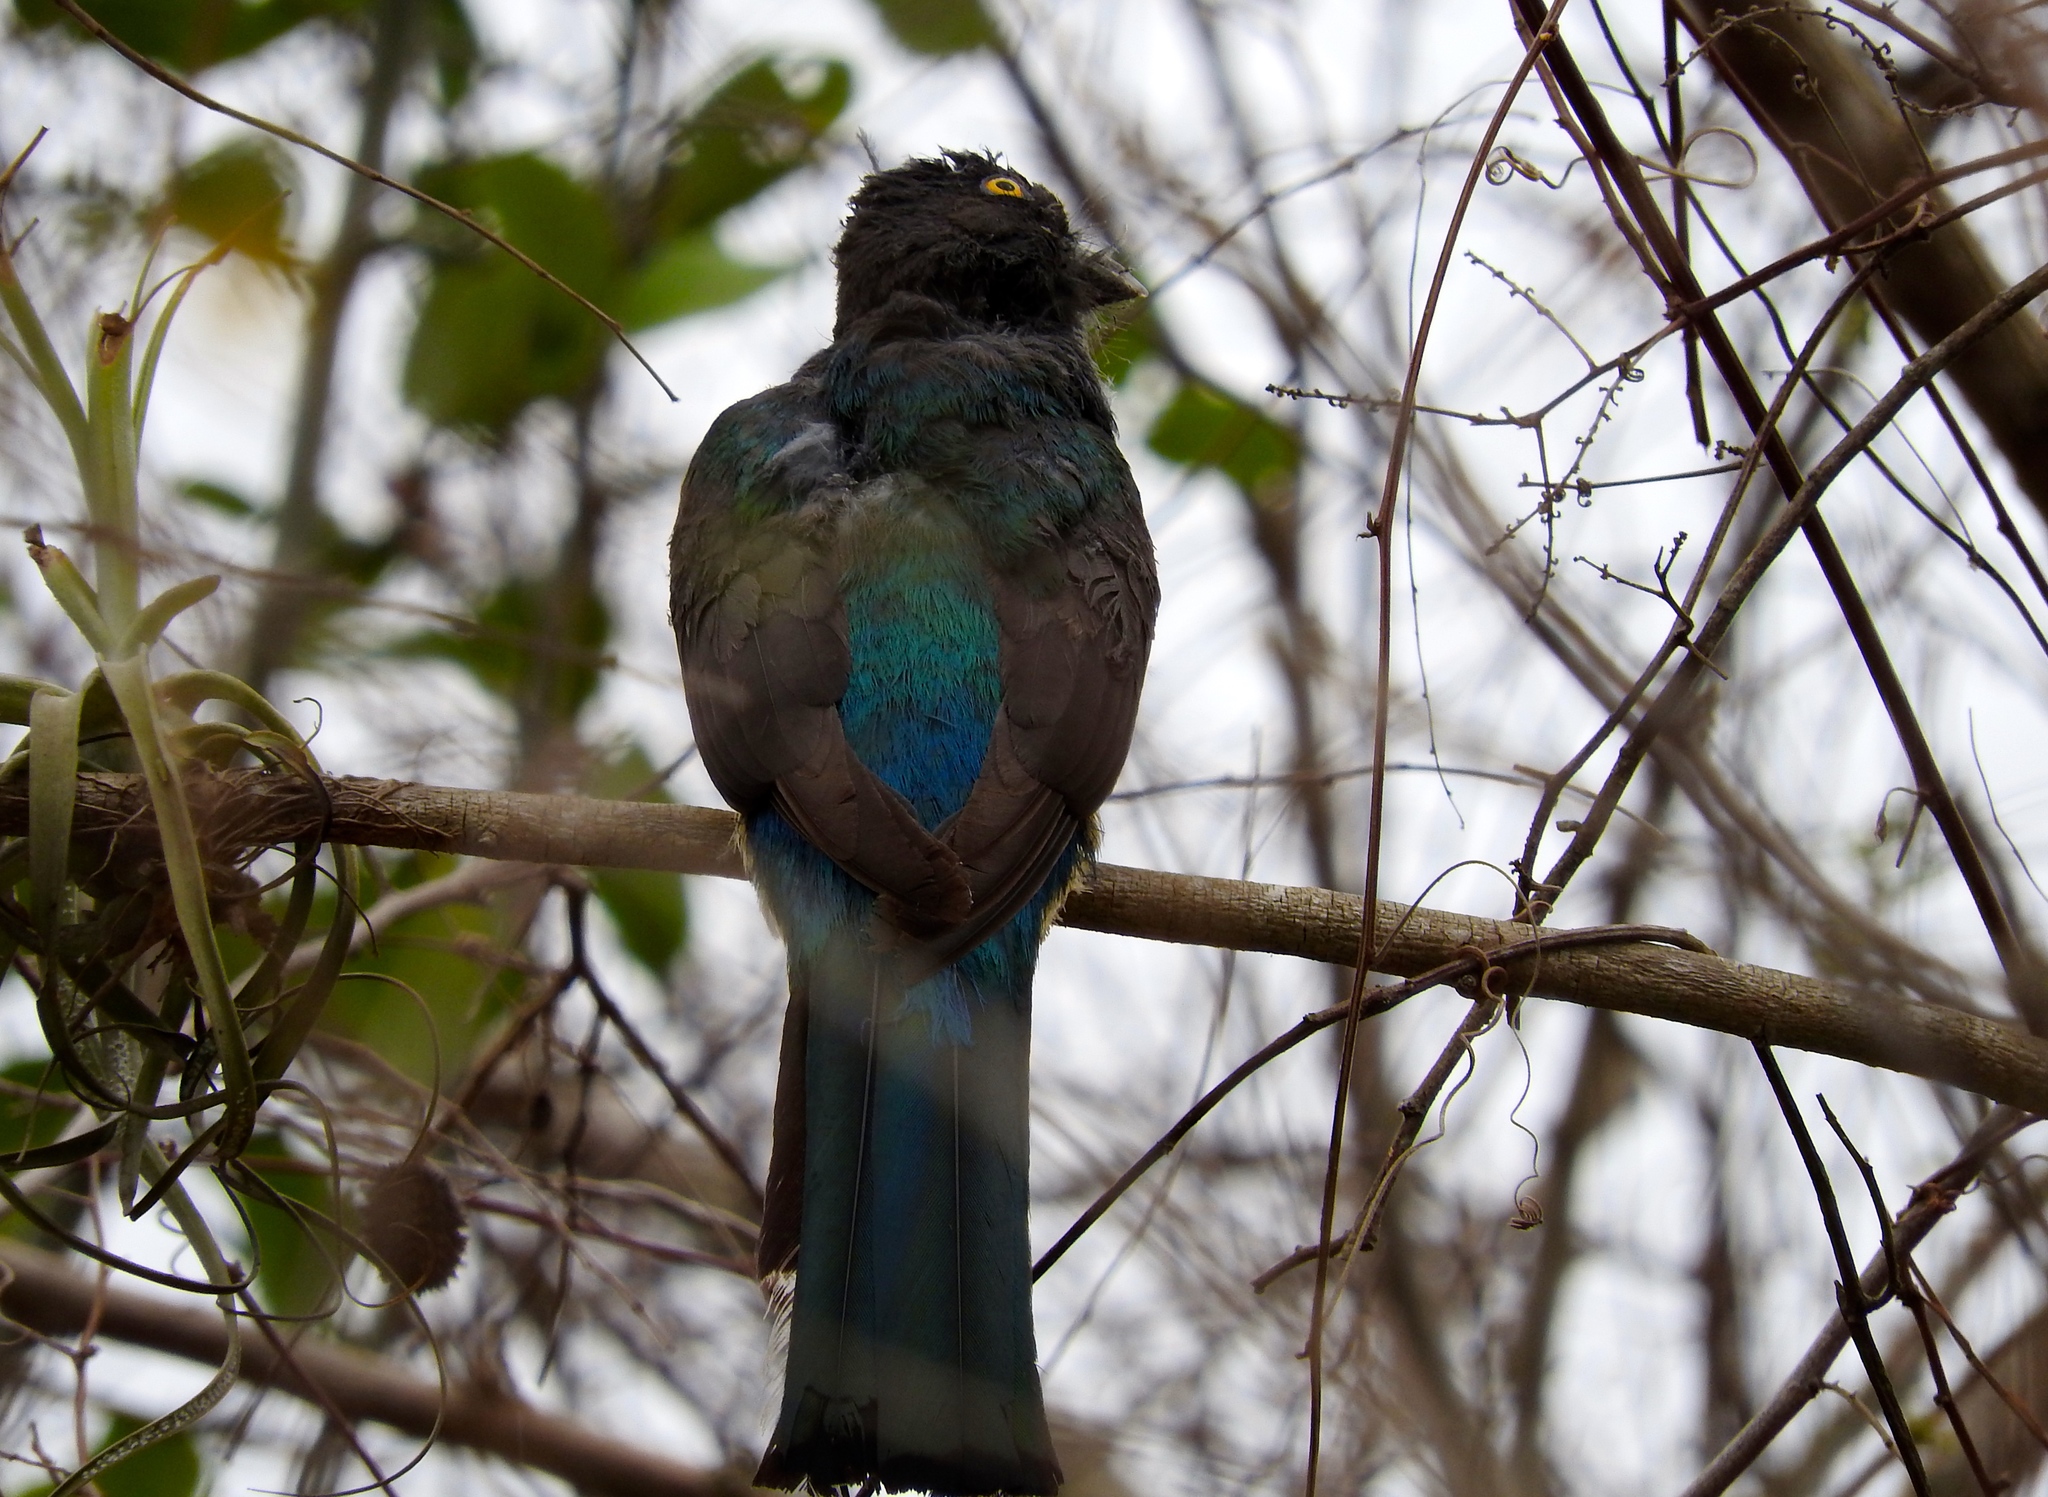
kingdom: Animalia
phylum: Chordata
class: Aves
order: Trogoniformes
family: Trogonidae
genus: Trogon
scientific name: Trogon citreolus
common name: Citreoline trogon
